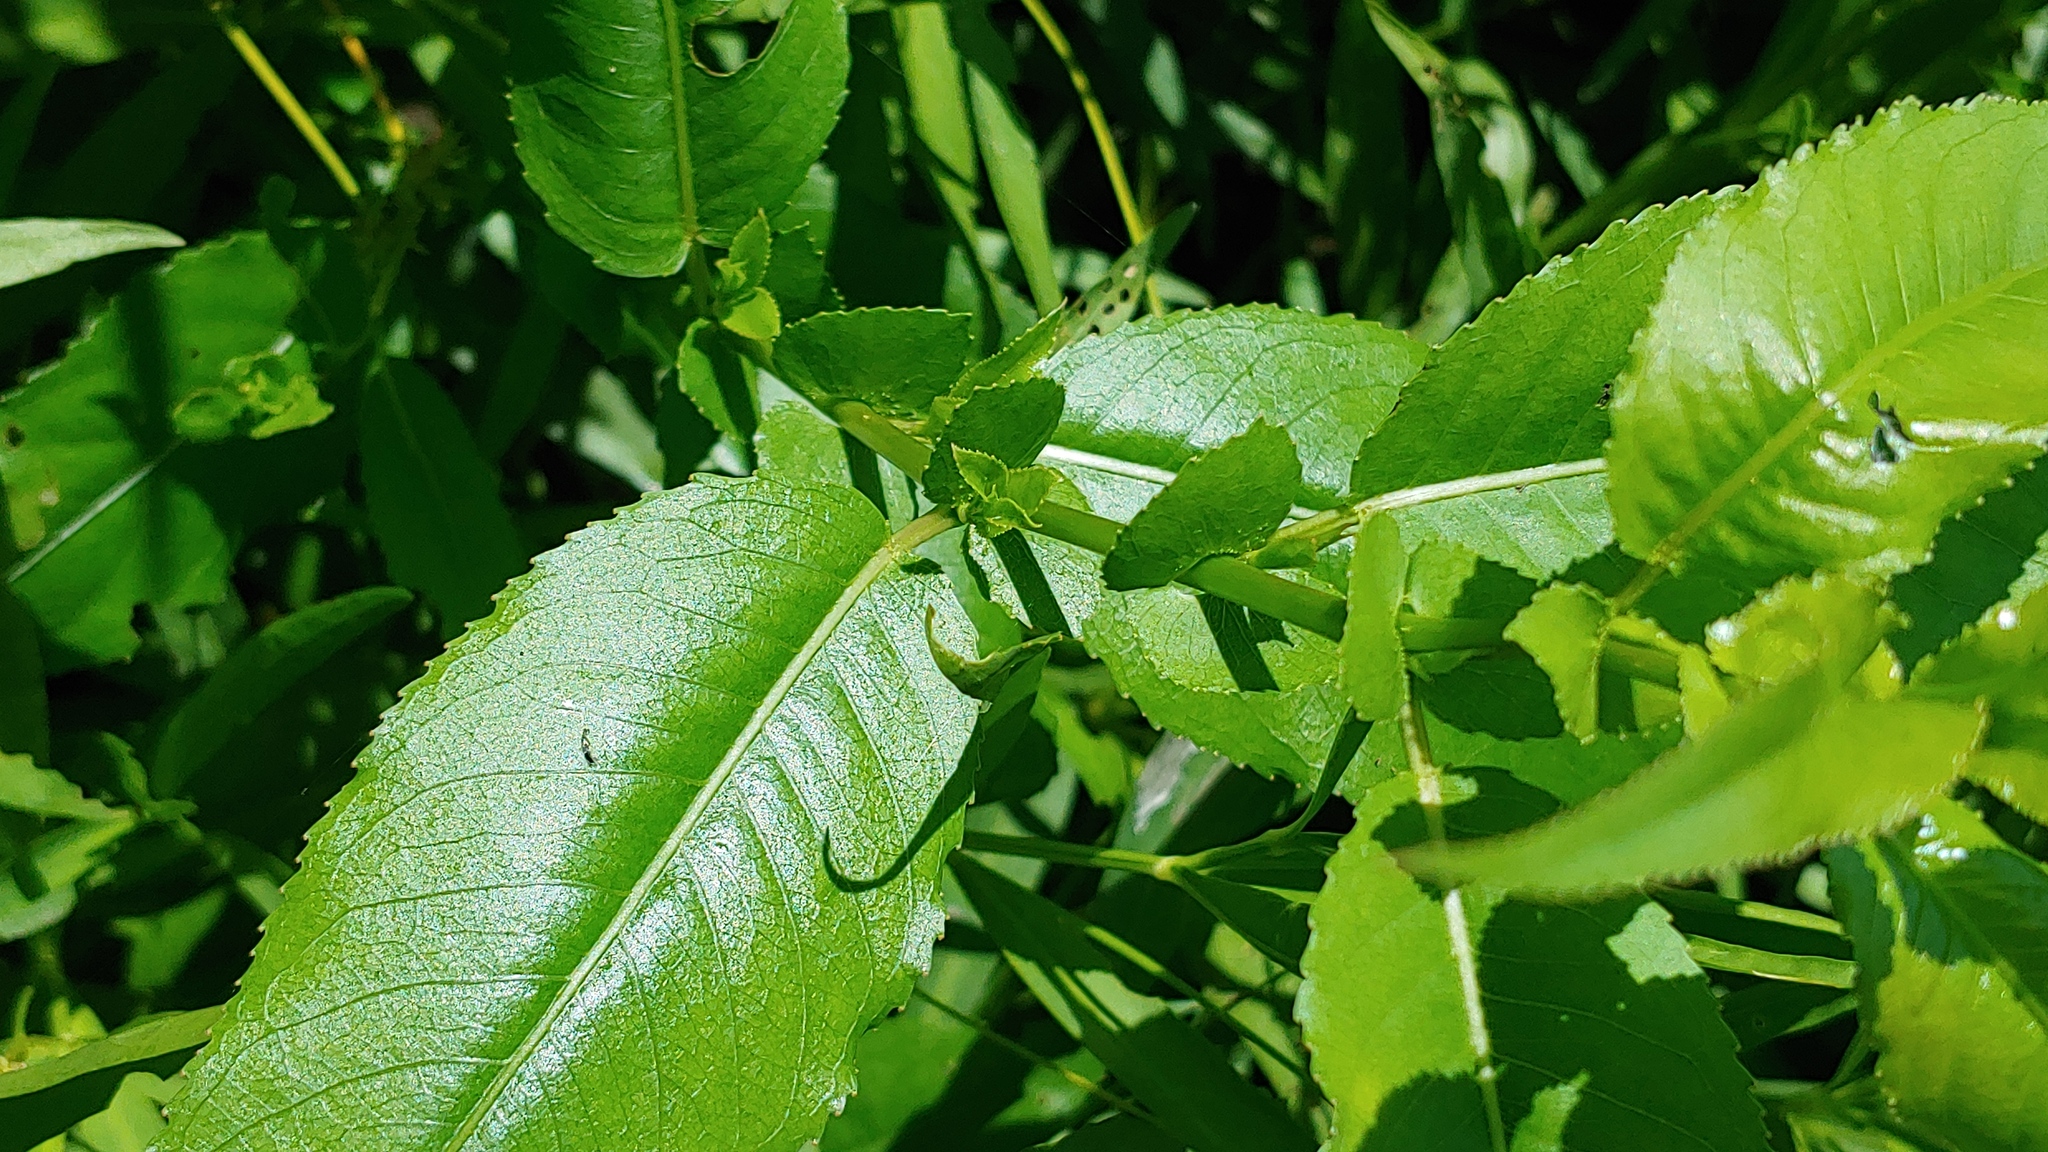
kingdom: Plantae
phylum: Tracheophyta
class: Magnoliopsida
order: Malpighiales
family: Salicaceae
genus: Salix
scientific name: Salix eriocephala
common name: Heart-leaved willow
